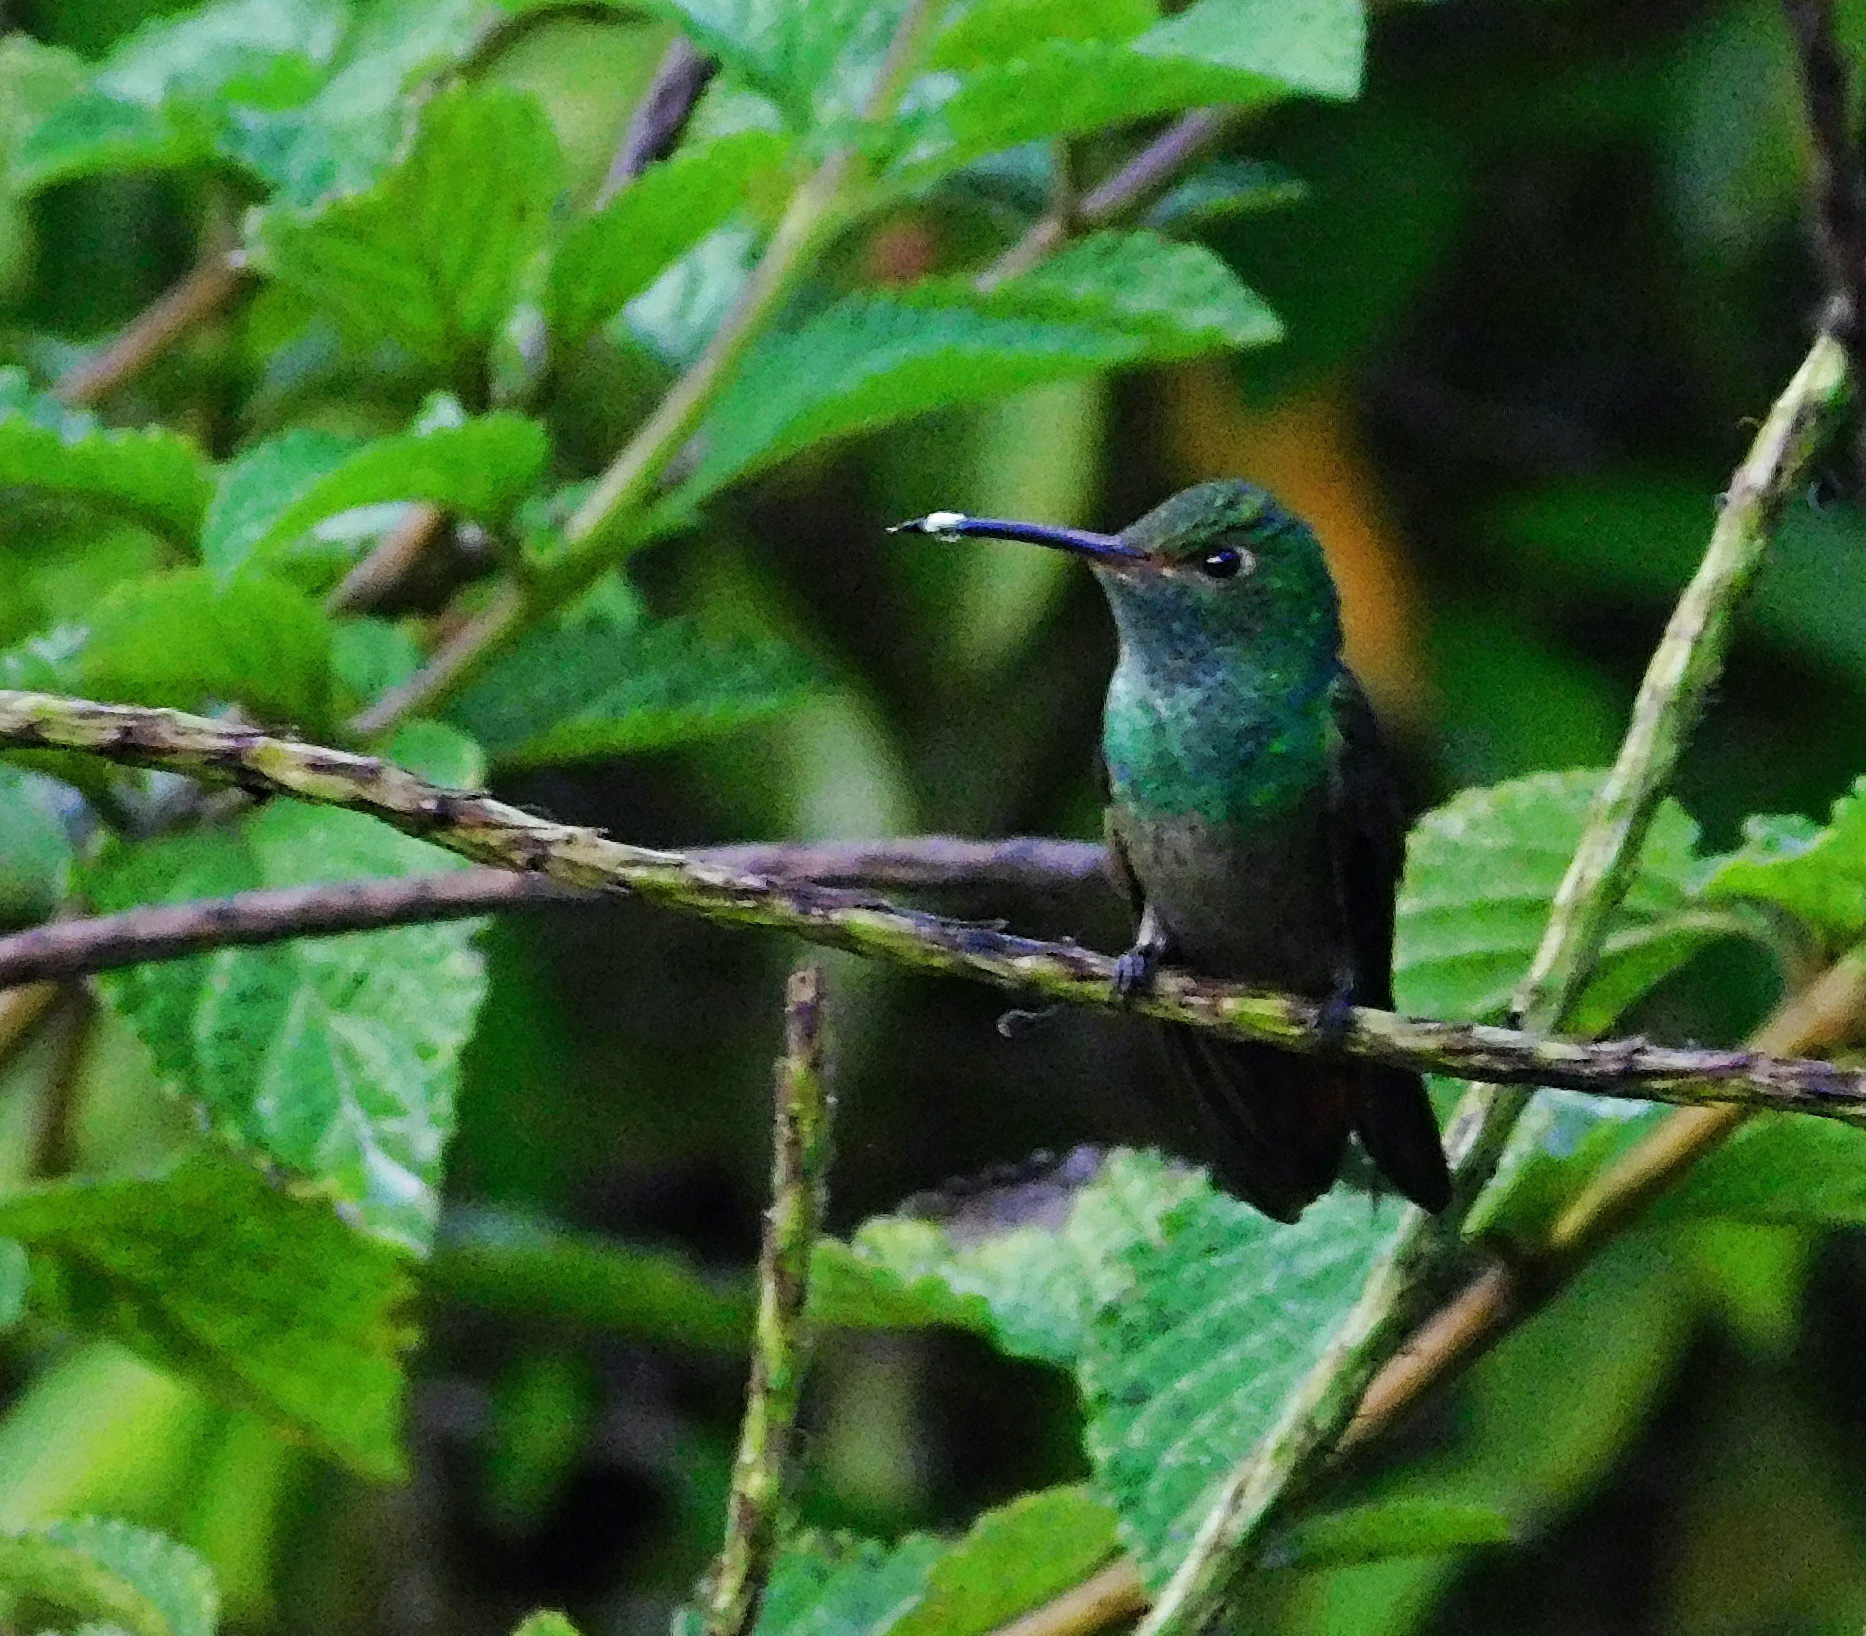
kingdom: Animalia
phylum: Chordata
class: Aves
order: Apodiformes
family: Trochilidae
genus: Amazilia
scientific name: Amazilia tzacatl
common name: Rufous-tailed hummingbird
